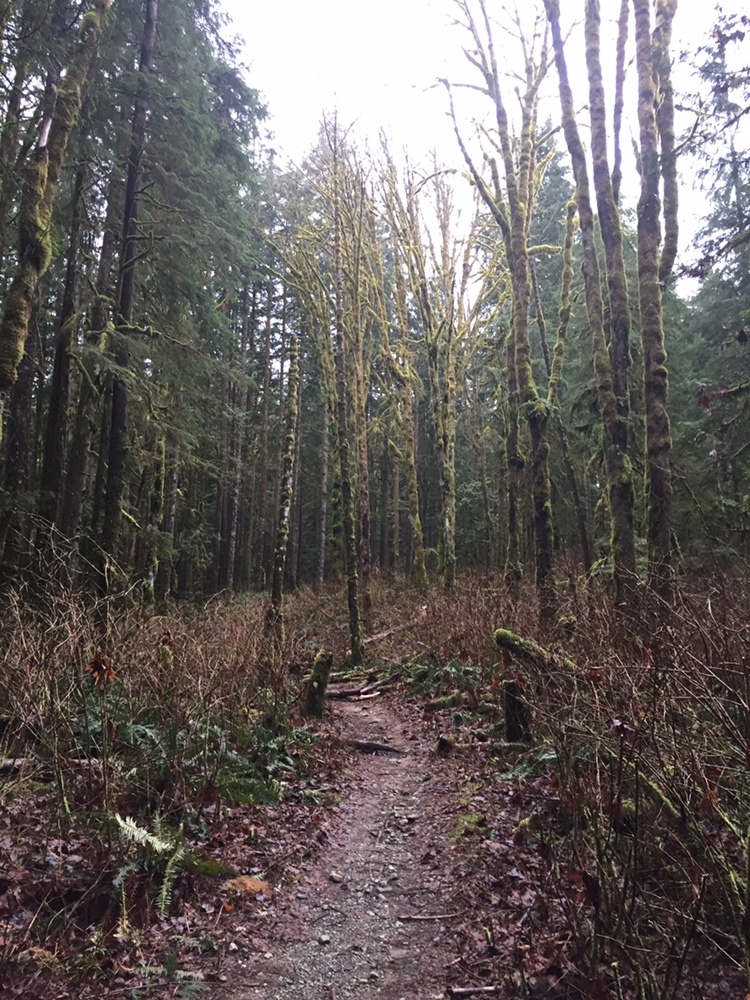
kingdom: Plantae
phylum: Tracheophyta
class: Magnoliopsida
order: Sapindales
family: Sapindaceae
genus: Acer
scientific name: Acer macrophyllum
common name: Oregon maple
